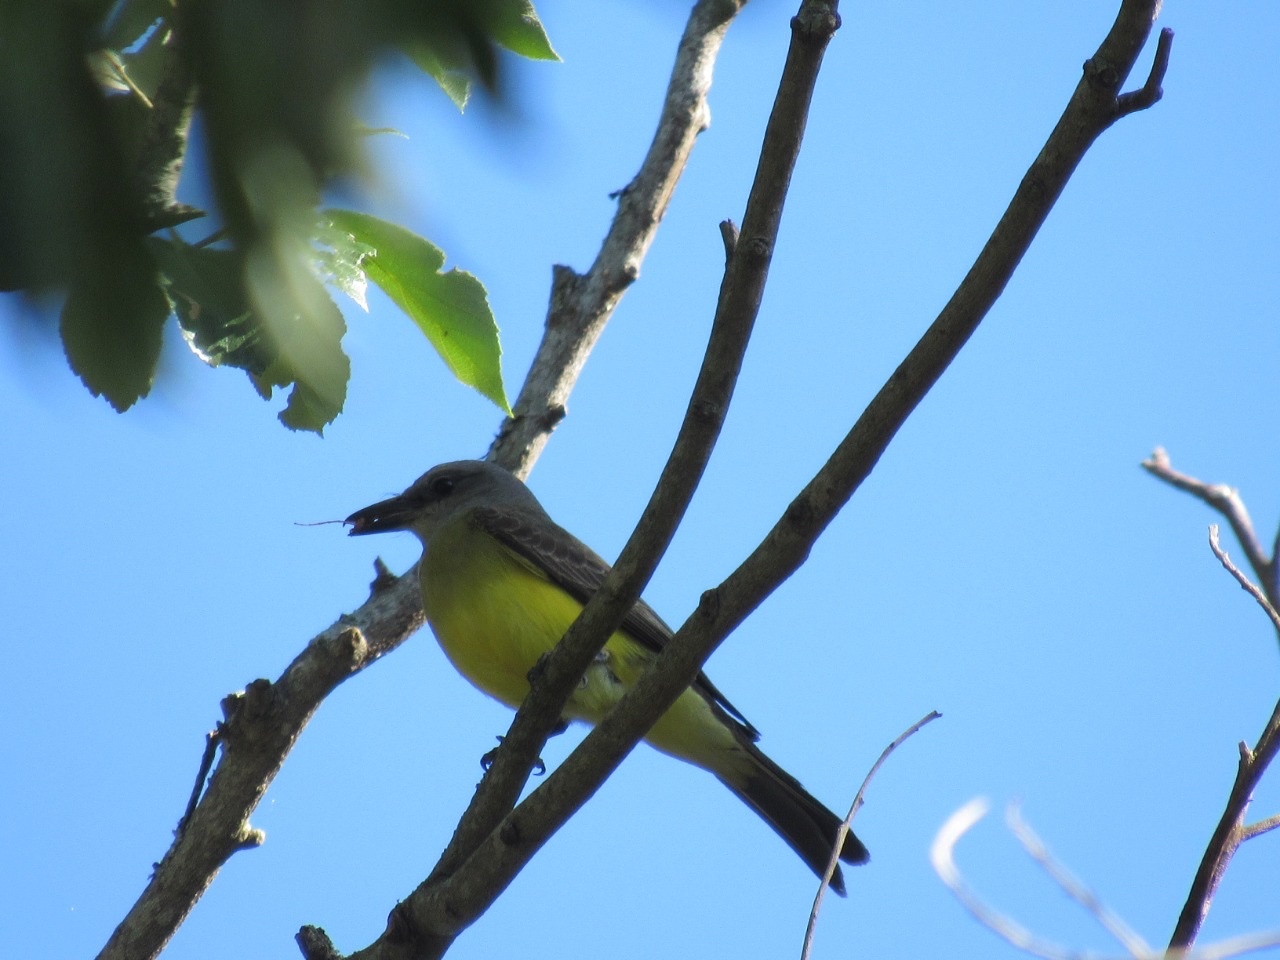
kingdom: Animalia
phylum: Chordata
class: Aves
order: Passeriformes
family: Tyrannidae
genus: Tyrannus
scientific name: Tyrannus melancholicus
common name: Tropical kingbird
